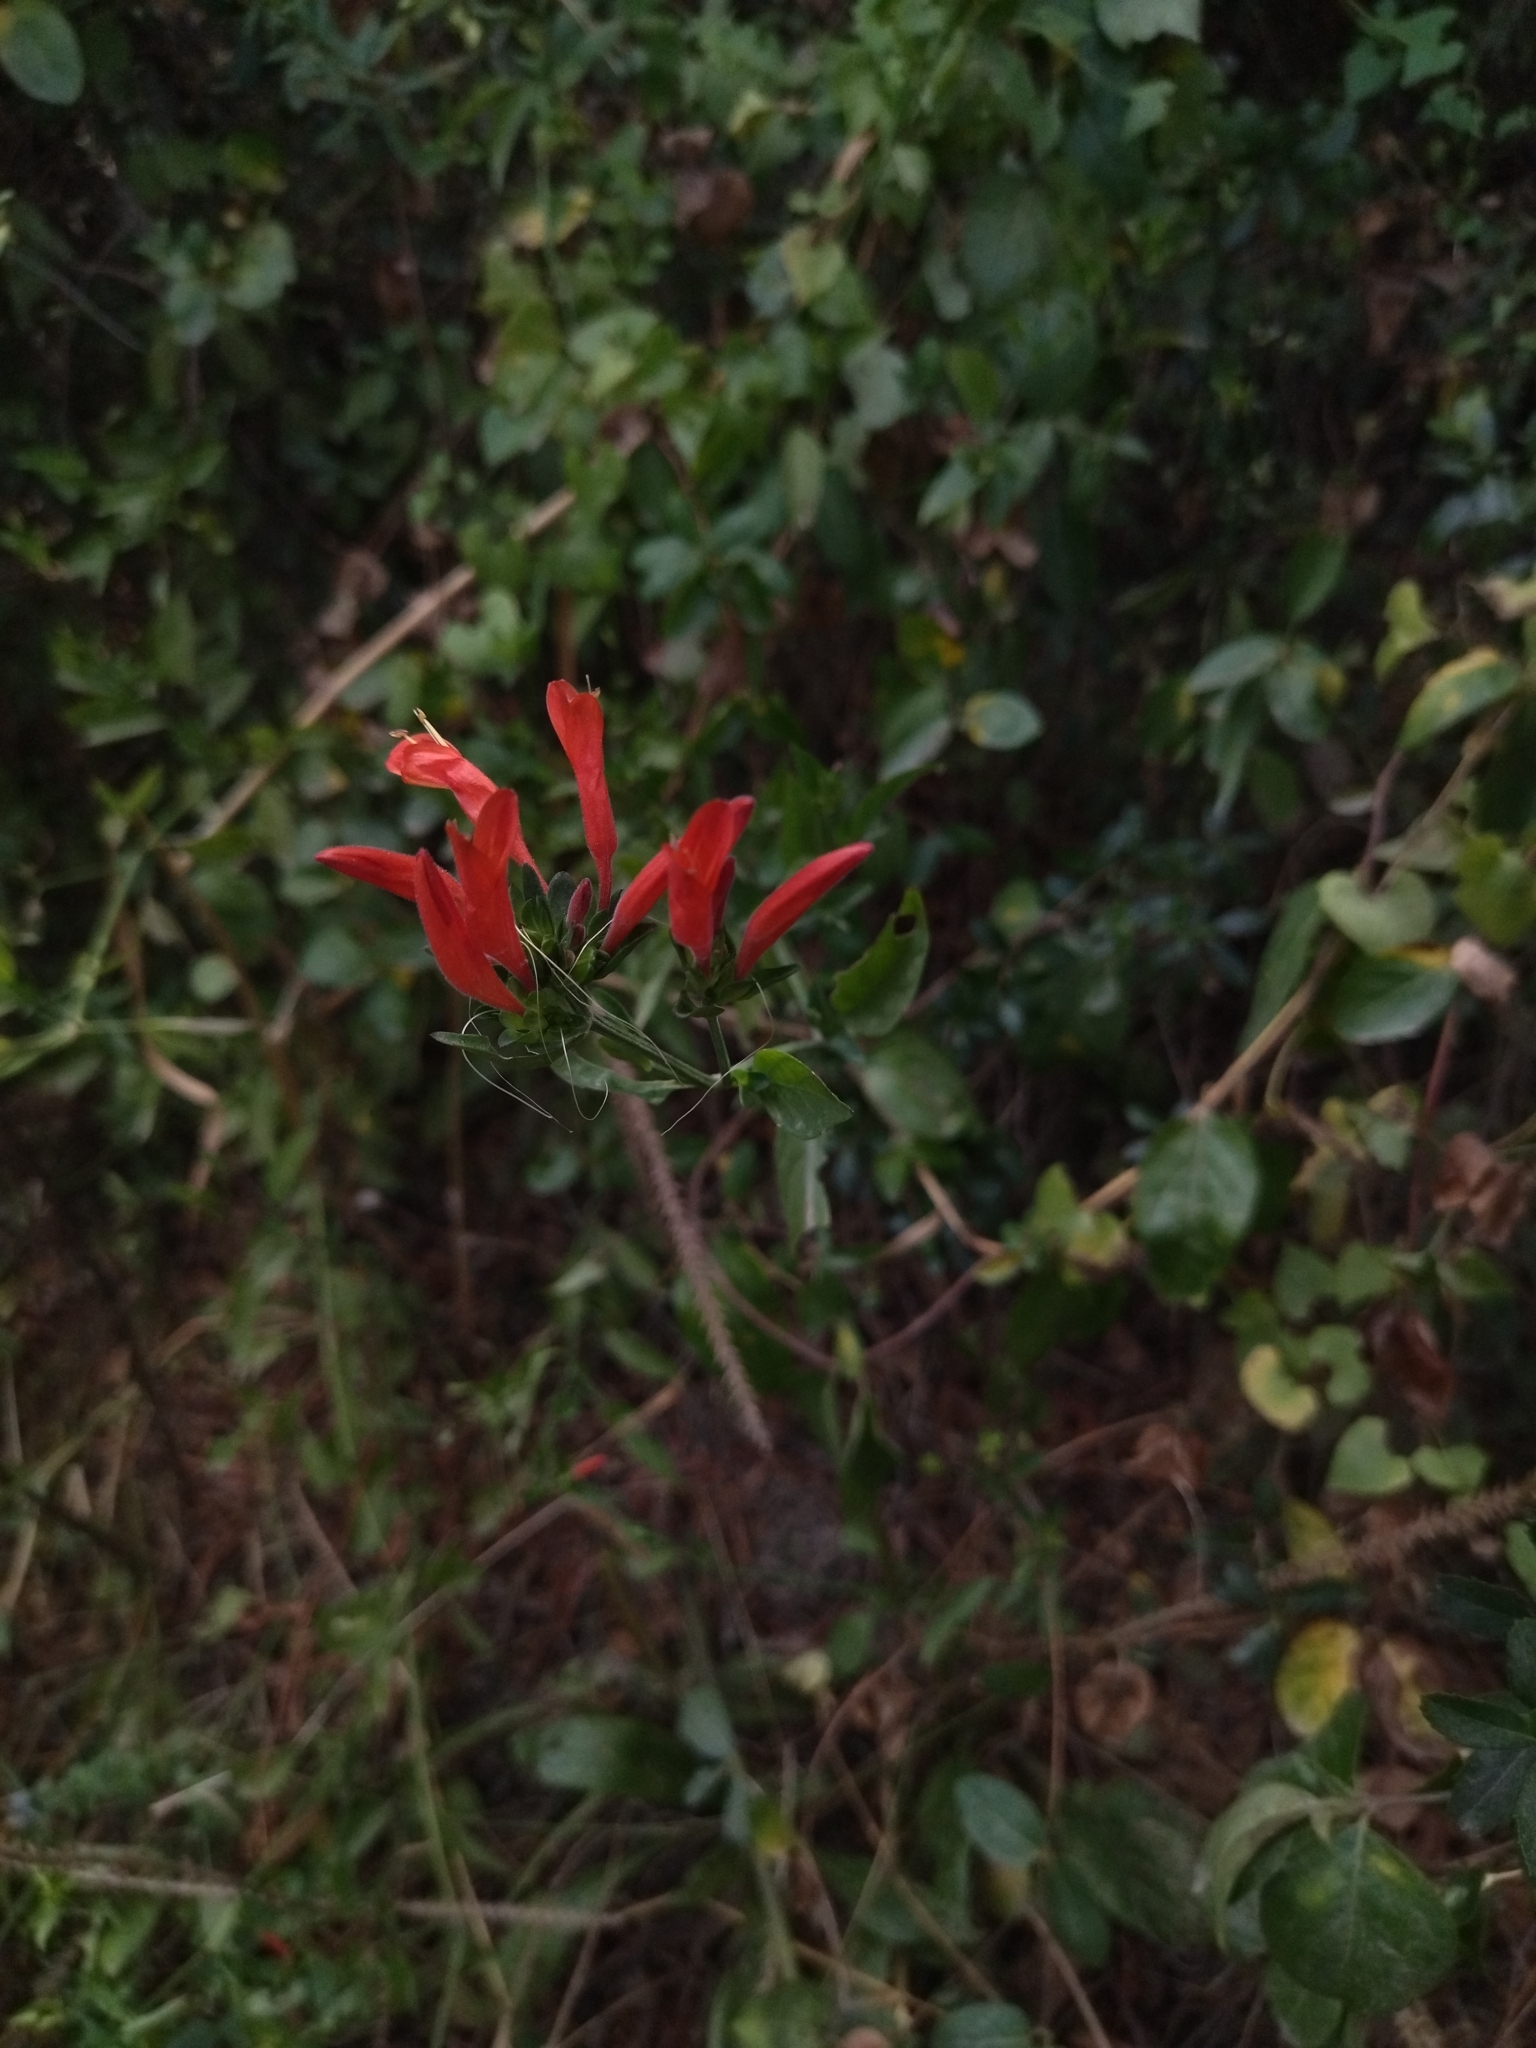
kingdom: Plantae
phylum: Tracheophyta
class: Magnoliopsida
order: Lamiales
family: Acanthaceae
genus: Dicliptera
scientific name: Dicliptera squarrosa
